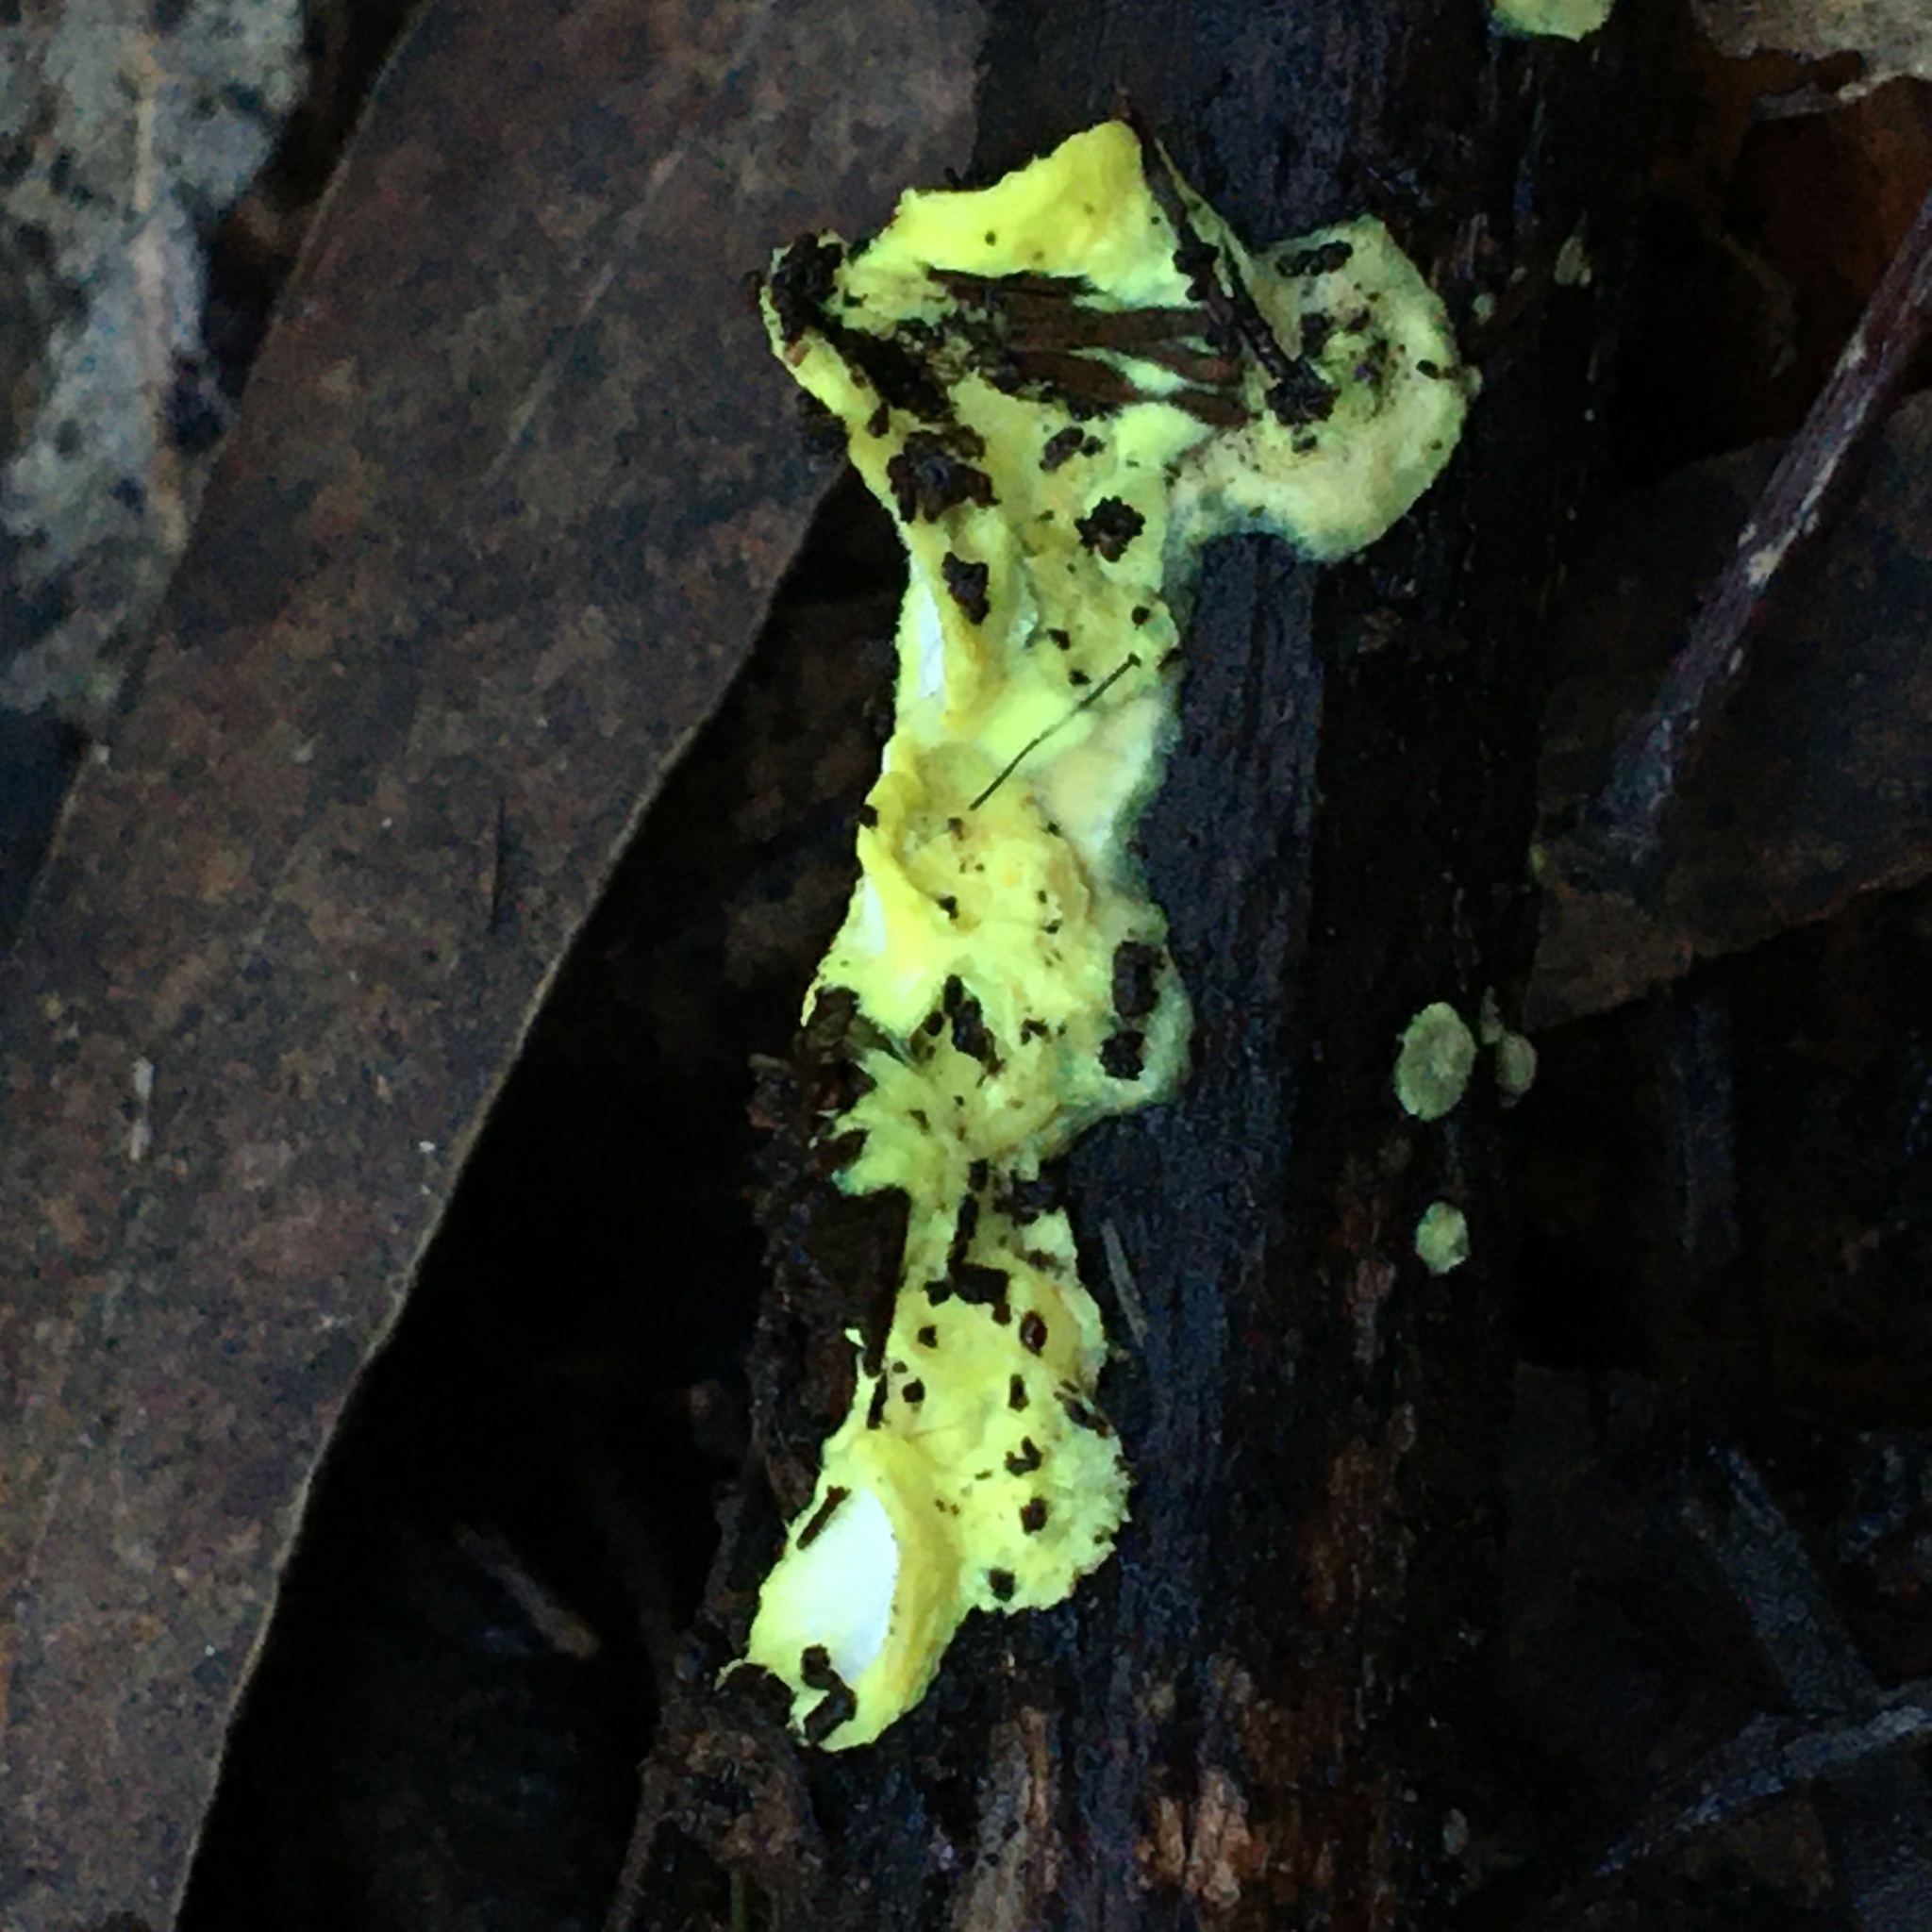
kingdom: Fungi
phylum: Basidiomycota
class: Agaricomycetes
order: Polyporales
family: Steccherinaceae
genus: Austeria
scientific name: Austeria citrea
